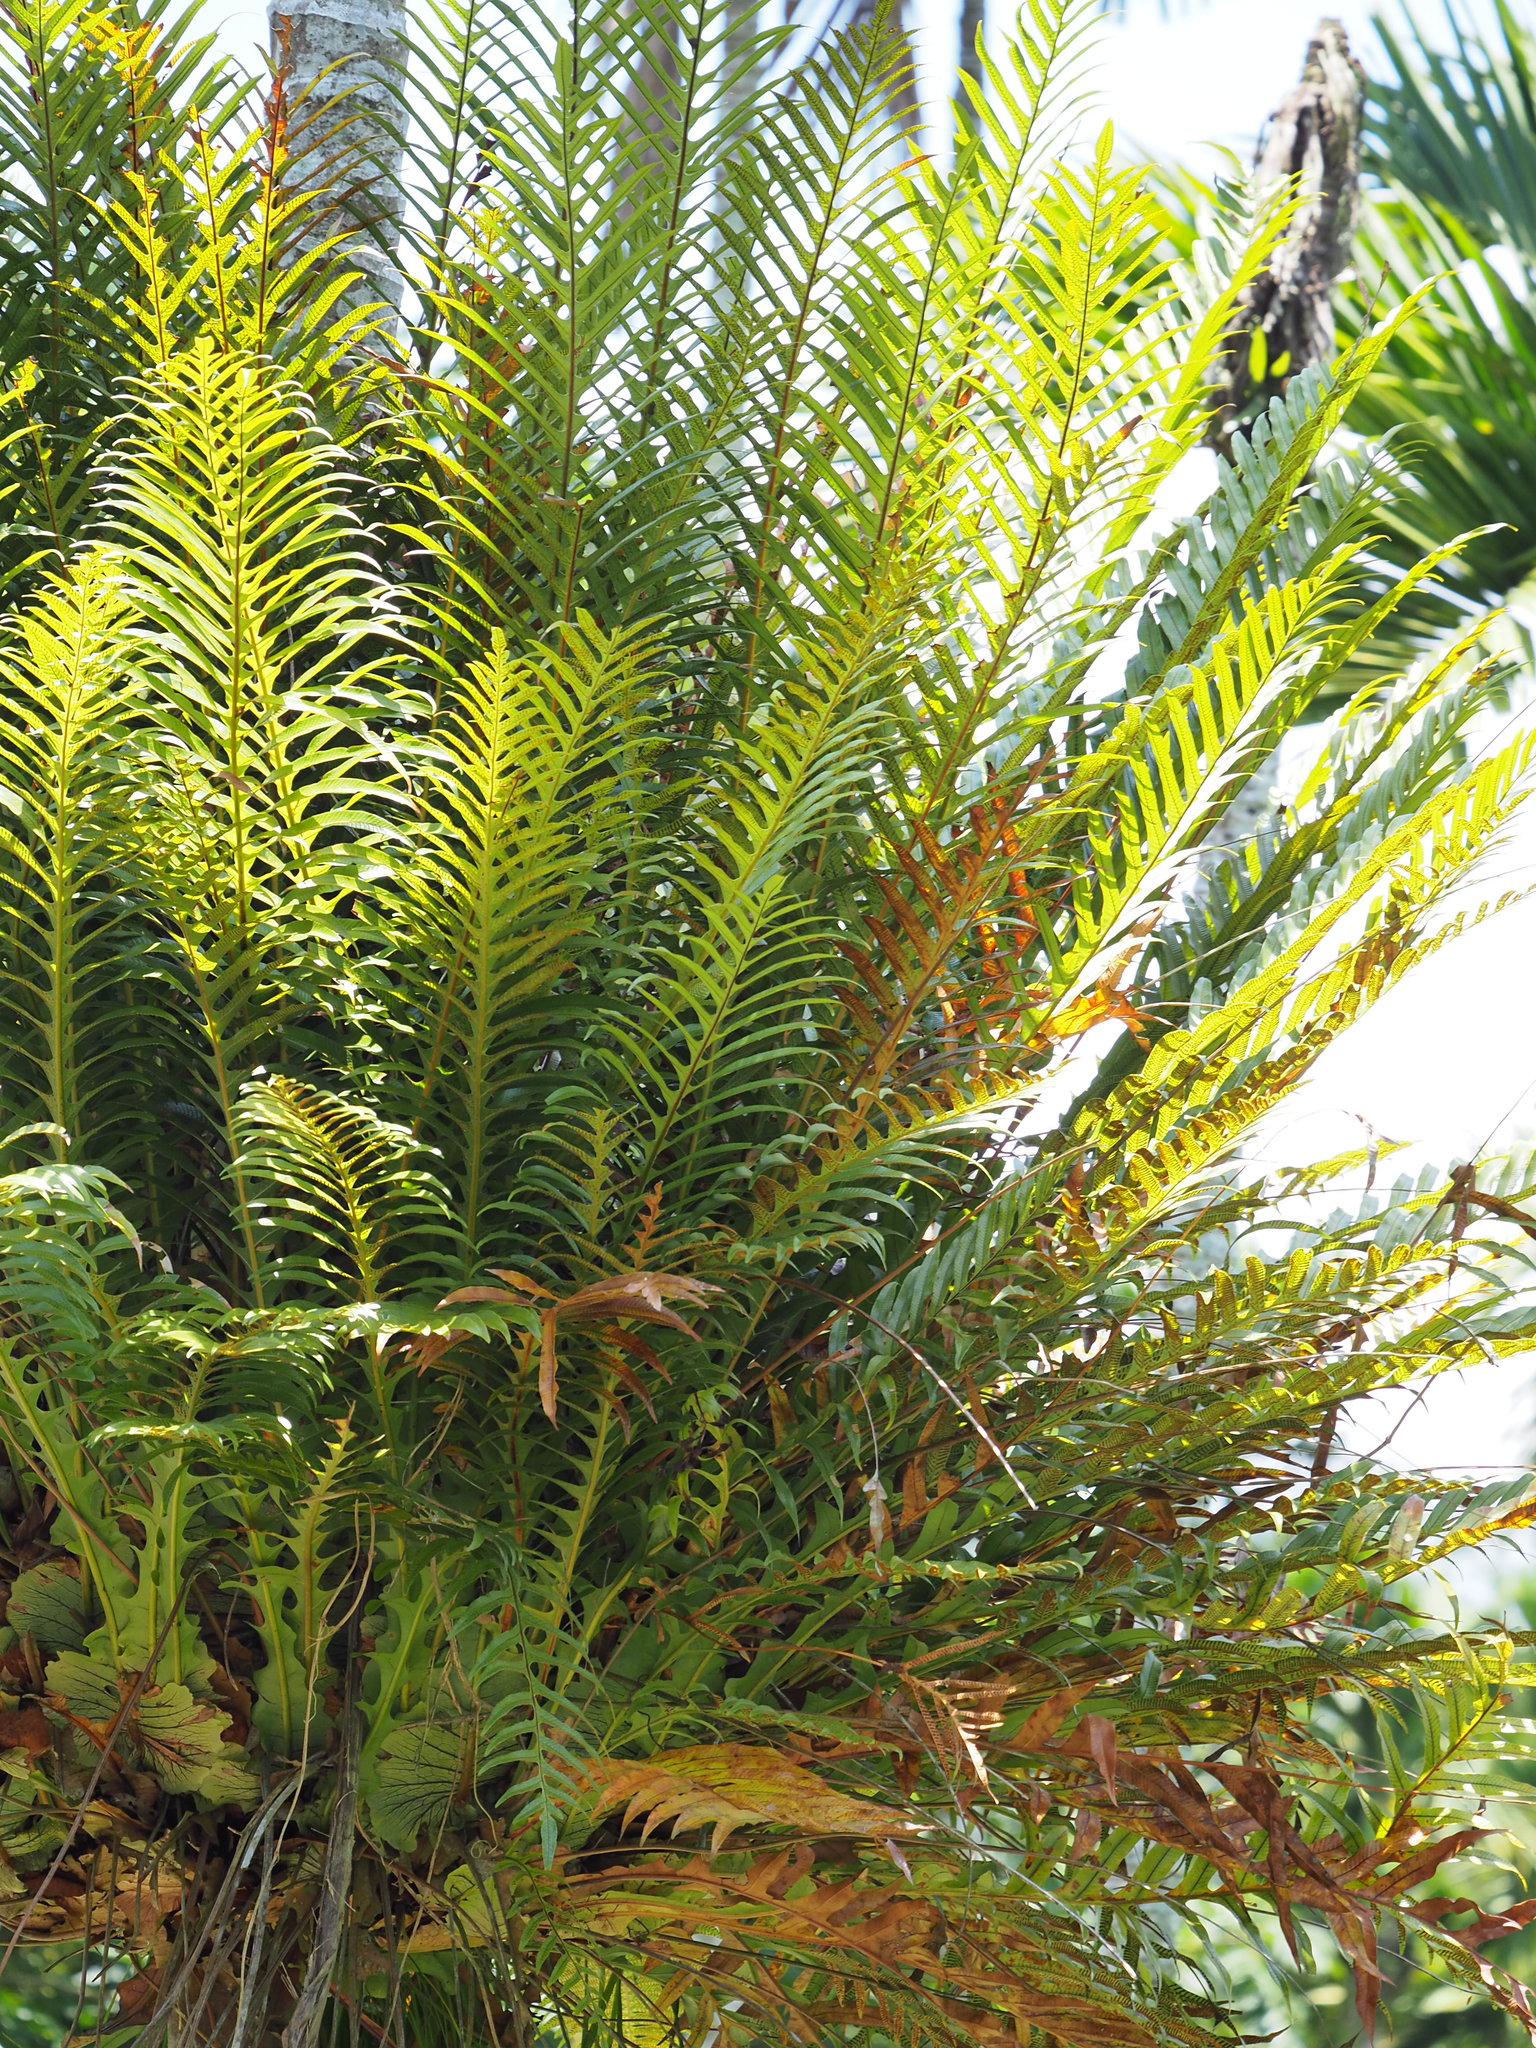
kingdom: Plantae
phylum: Tracheophyta
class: Polypodiopsida
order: Polypodiales
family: Polypodiaceae
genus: Drynaria
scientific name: Drynaria coronans
